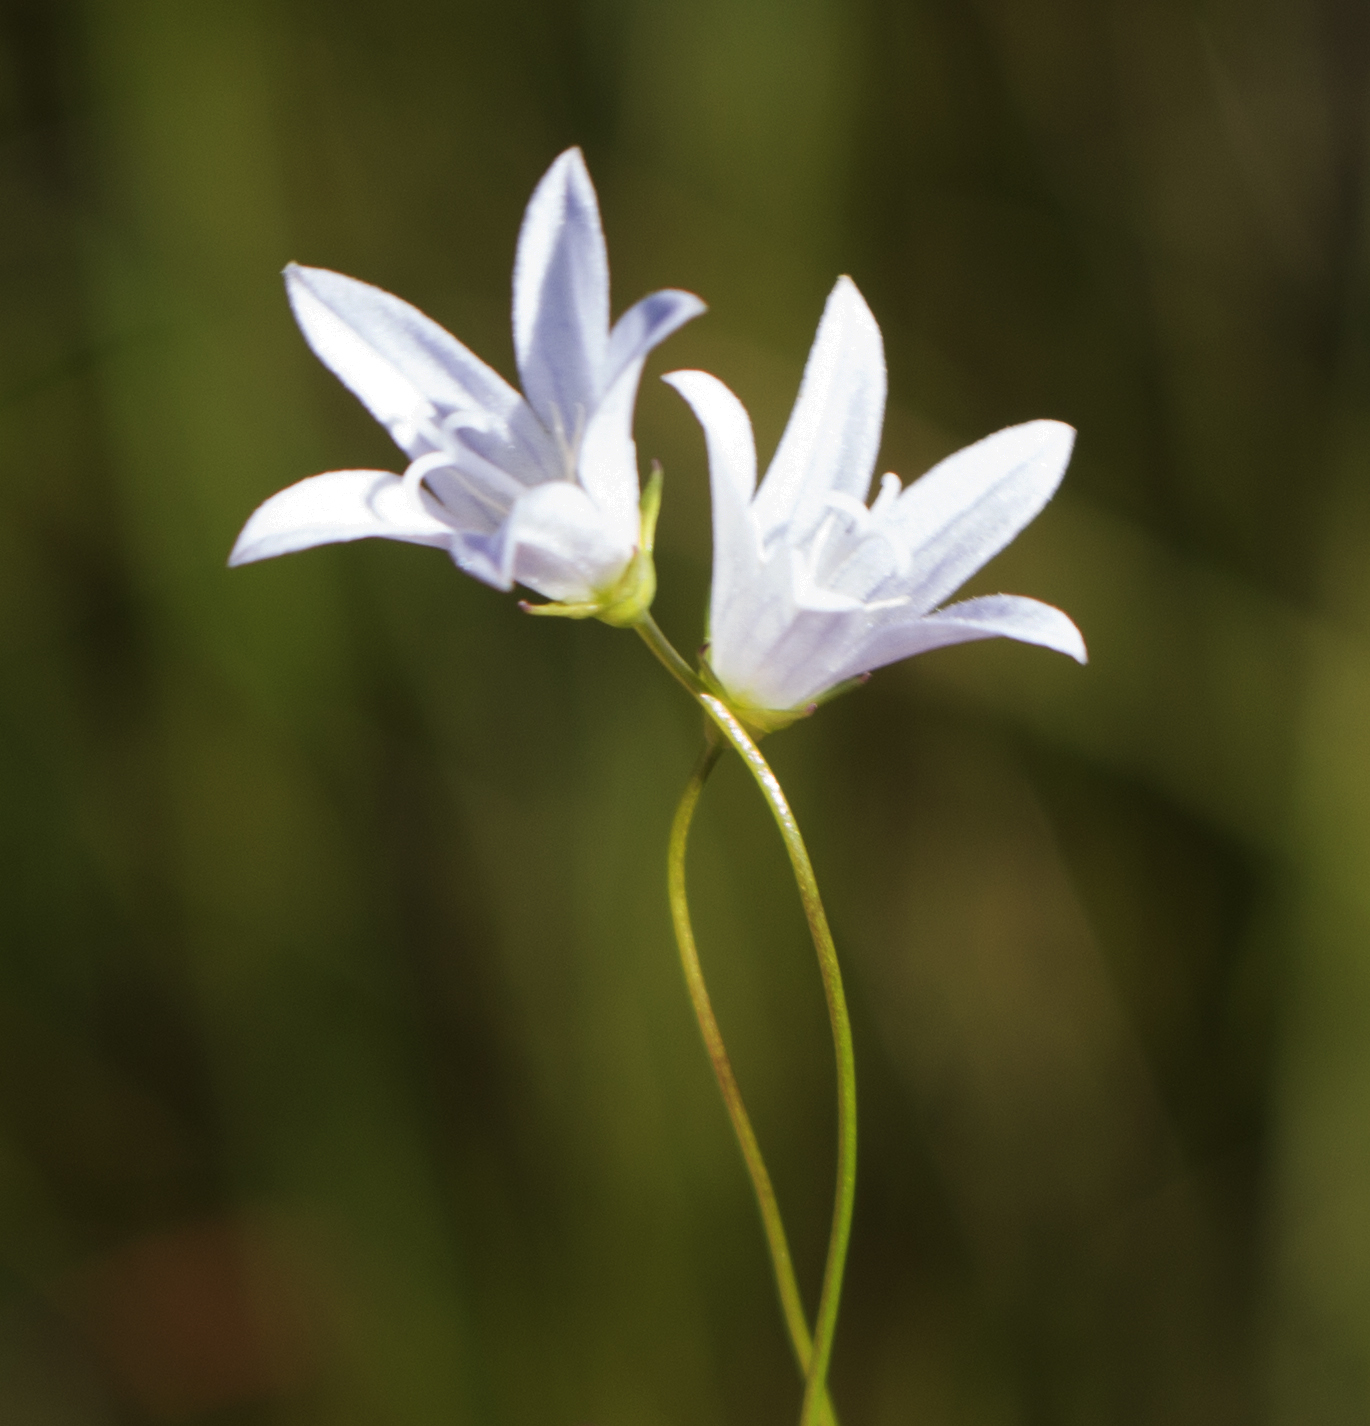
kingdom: Plantae
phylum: Tracheophyta
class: Magnoliopsida
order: Asterales
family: Campanulaceae
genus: Palustricodon
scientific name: Palustricodon aparinoides
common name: Bedstraw bellflower
